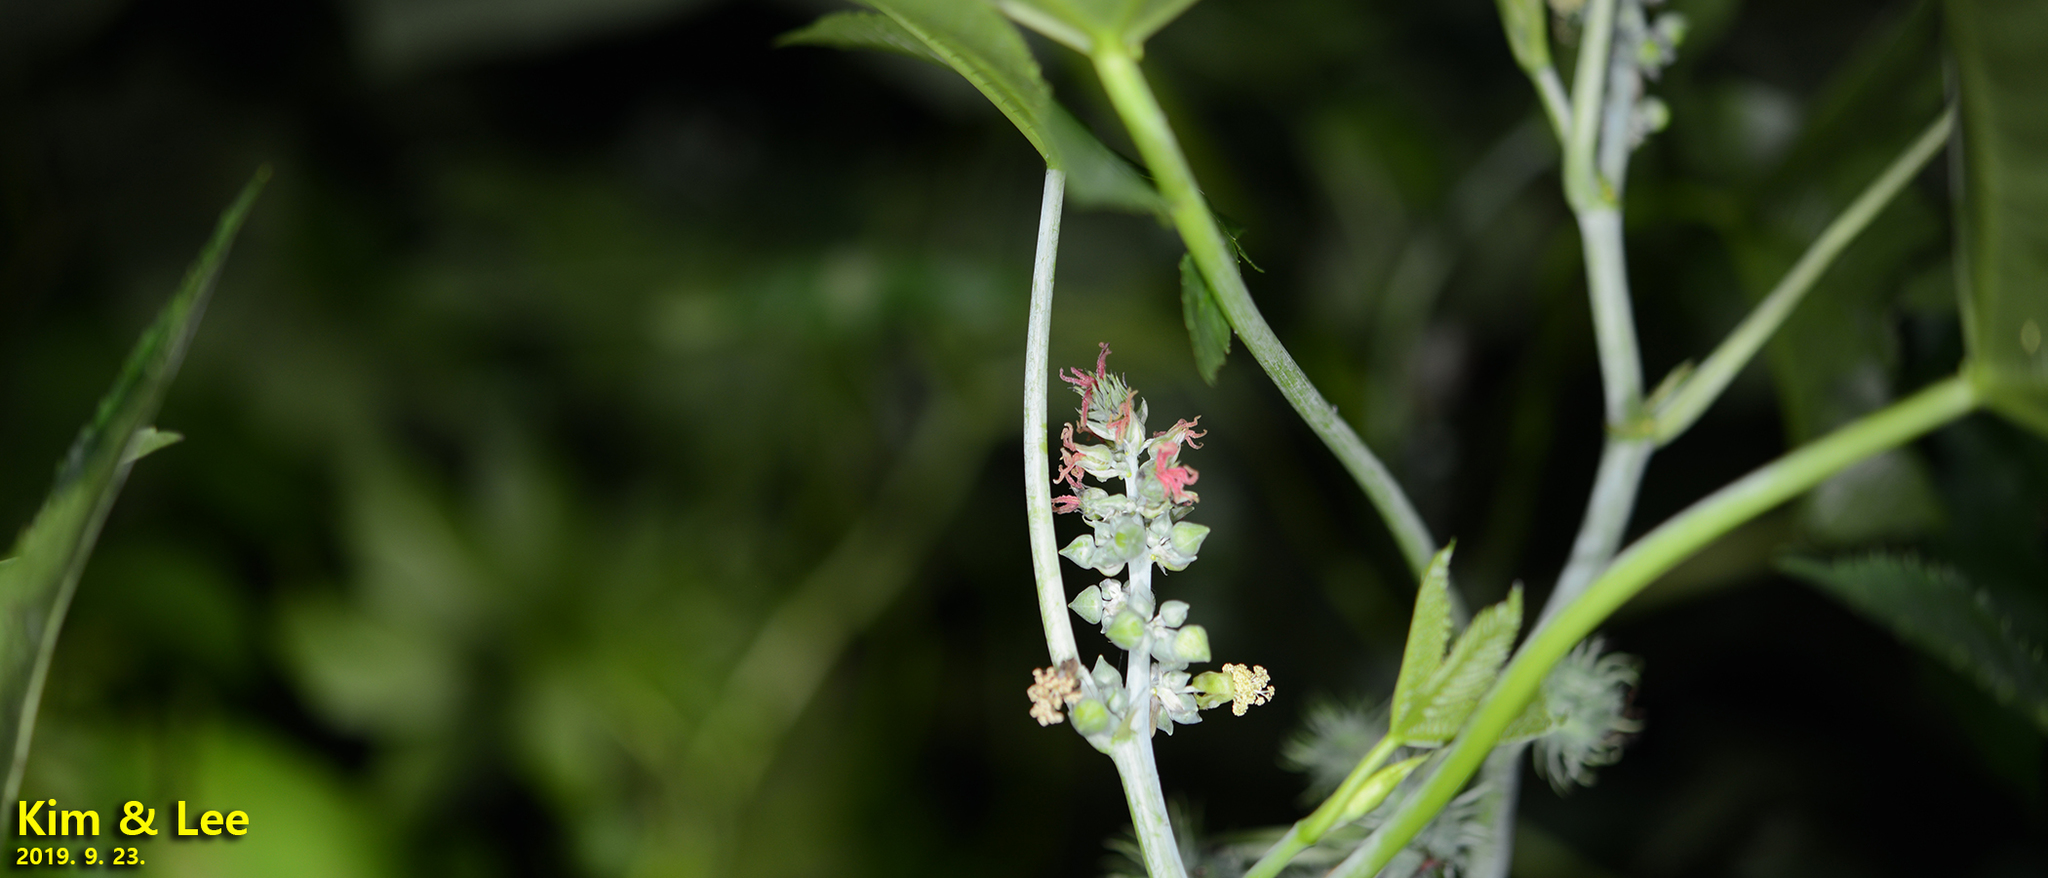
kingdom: Plantae
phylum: Tracheophyta
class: Magnoliopsida
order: Malpighiales
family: Euphorbiaceae
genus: Ricinus
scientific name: Ricinus communis
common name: Castor-oil-plant
